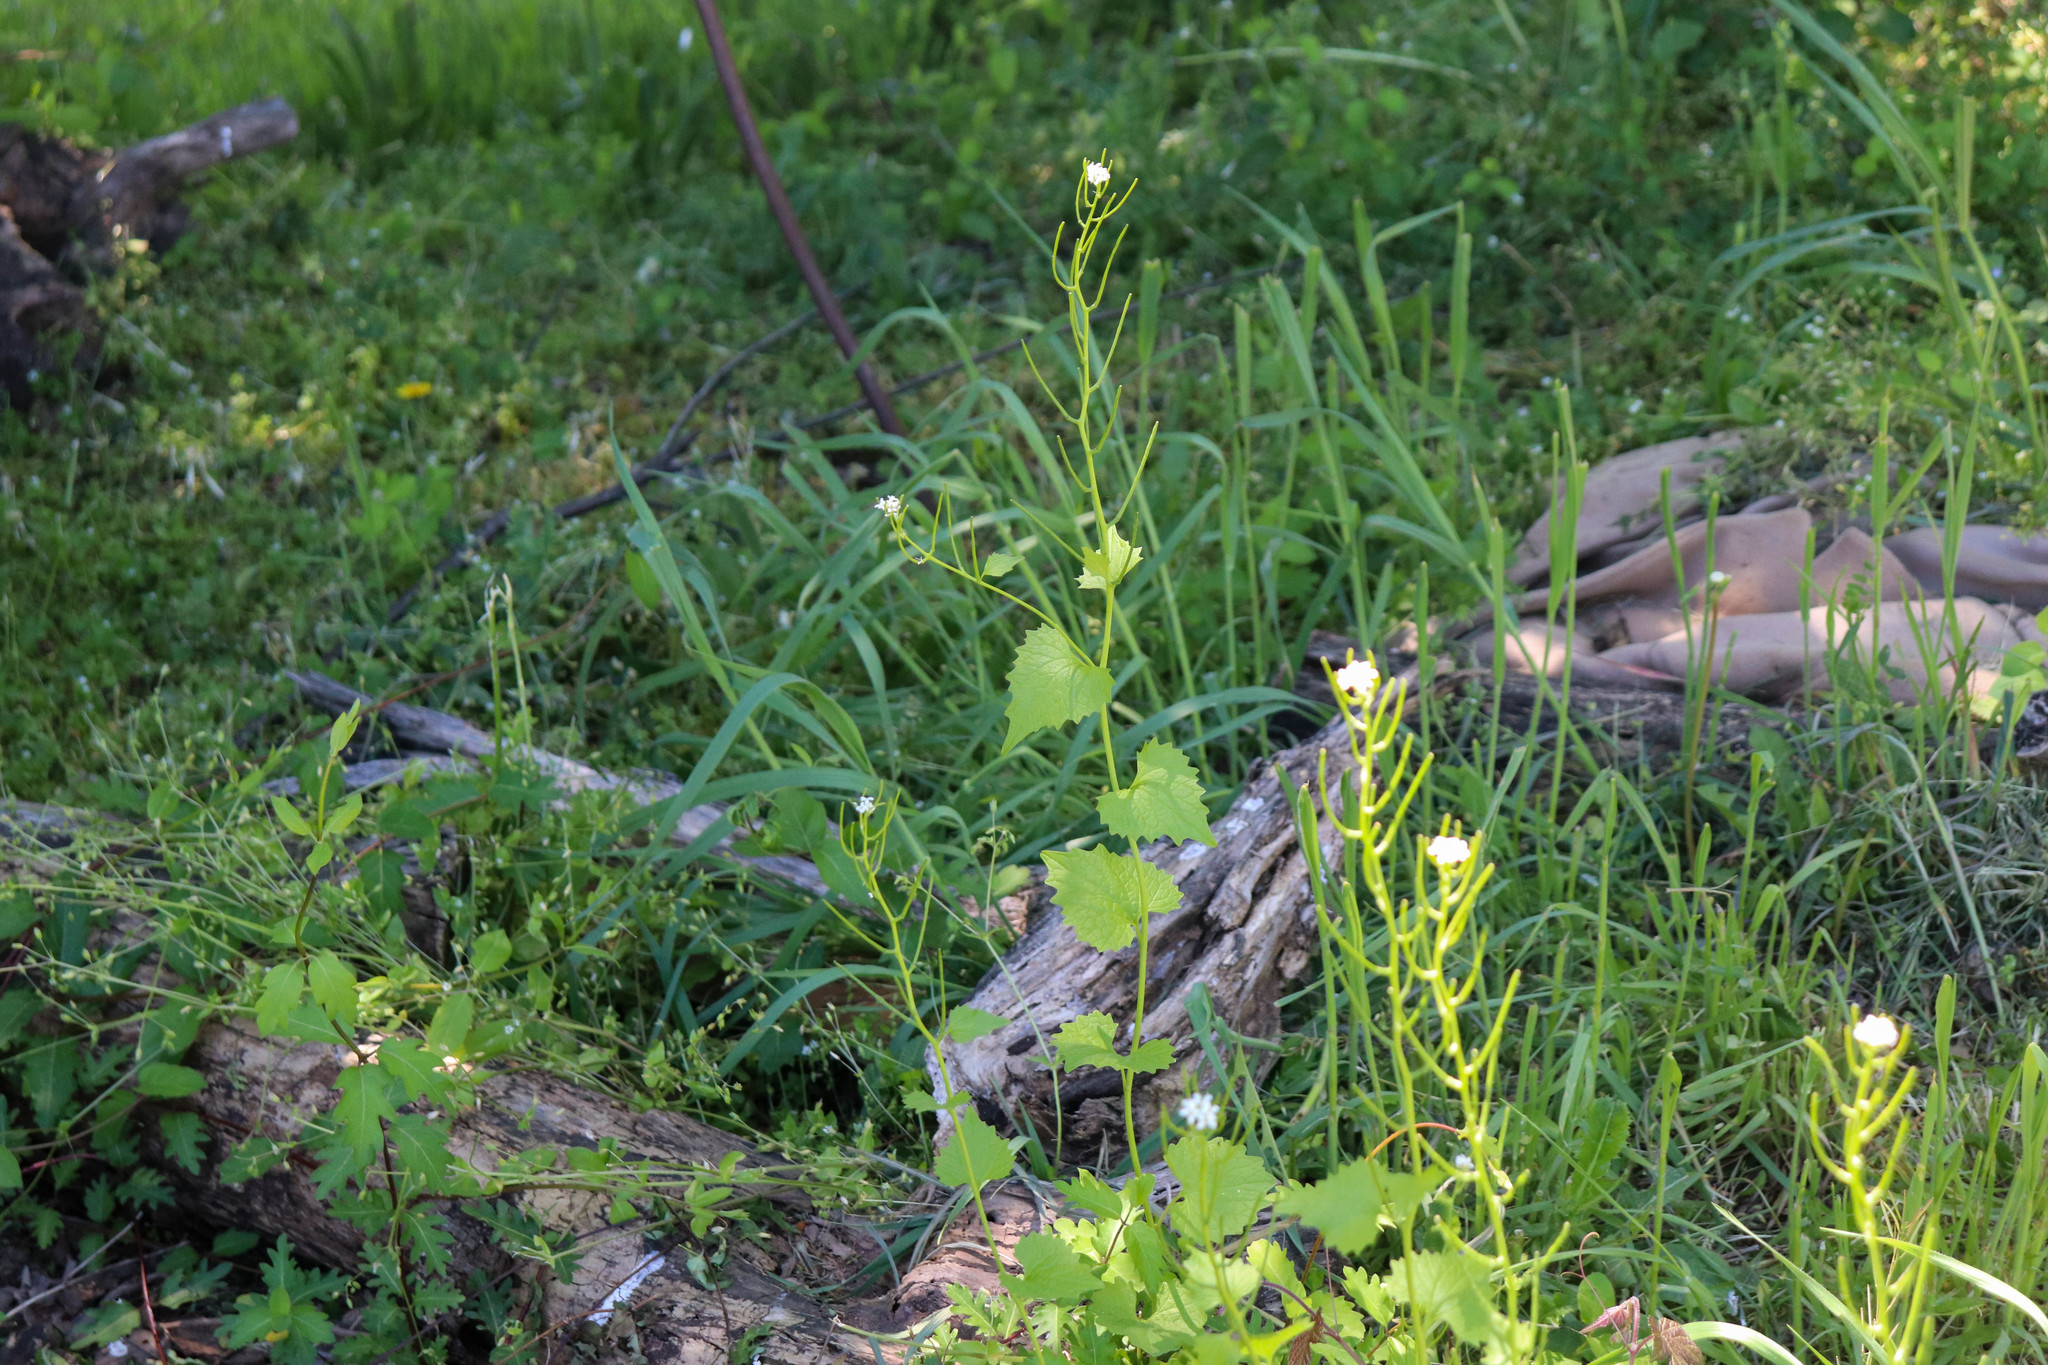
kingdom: Plantae
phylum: Tracheophyta
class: Magnoliopsida
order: Brassicales
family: Brassicaceae
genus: Alliaria
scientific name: Alliaria petiolata
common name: Garlic mustard
